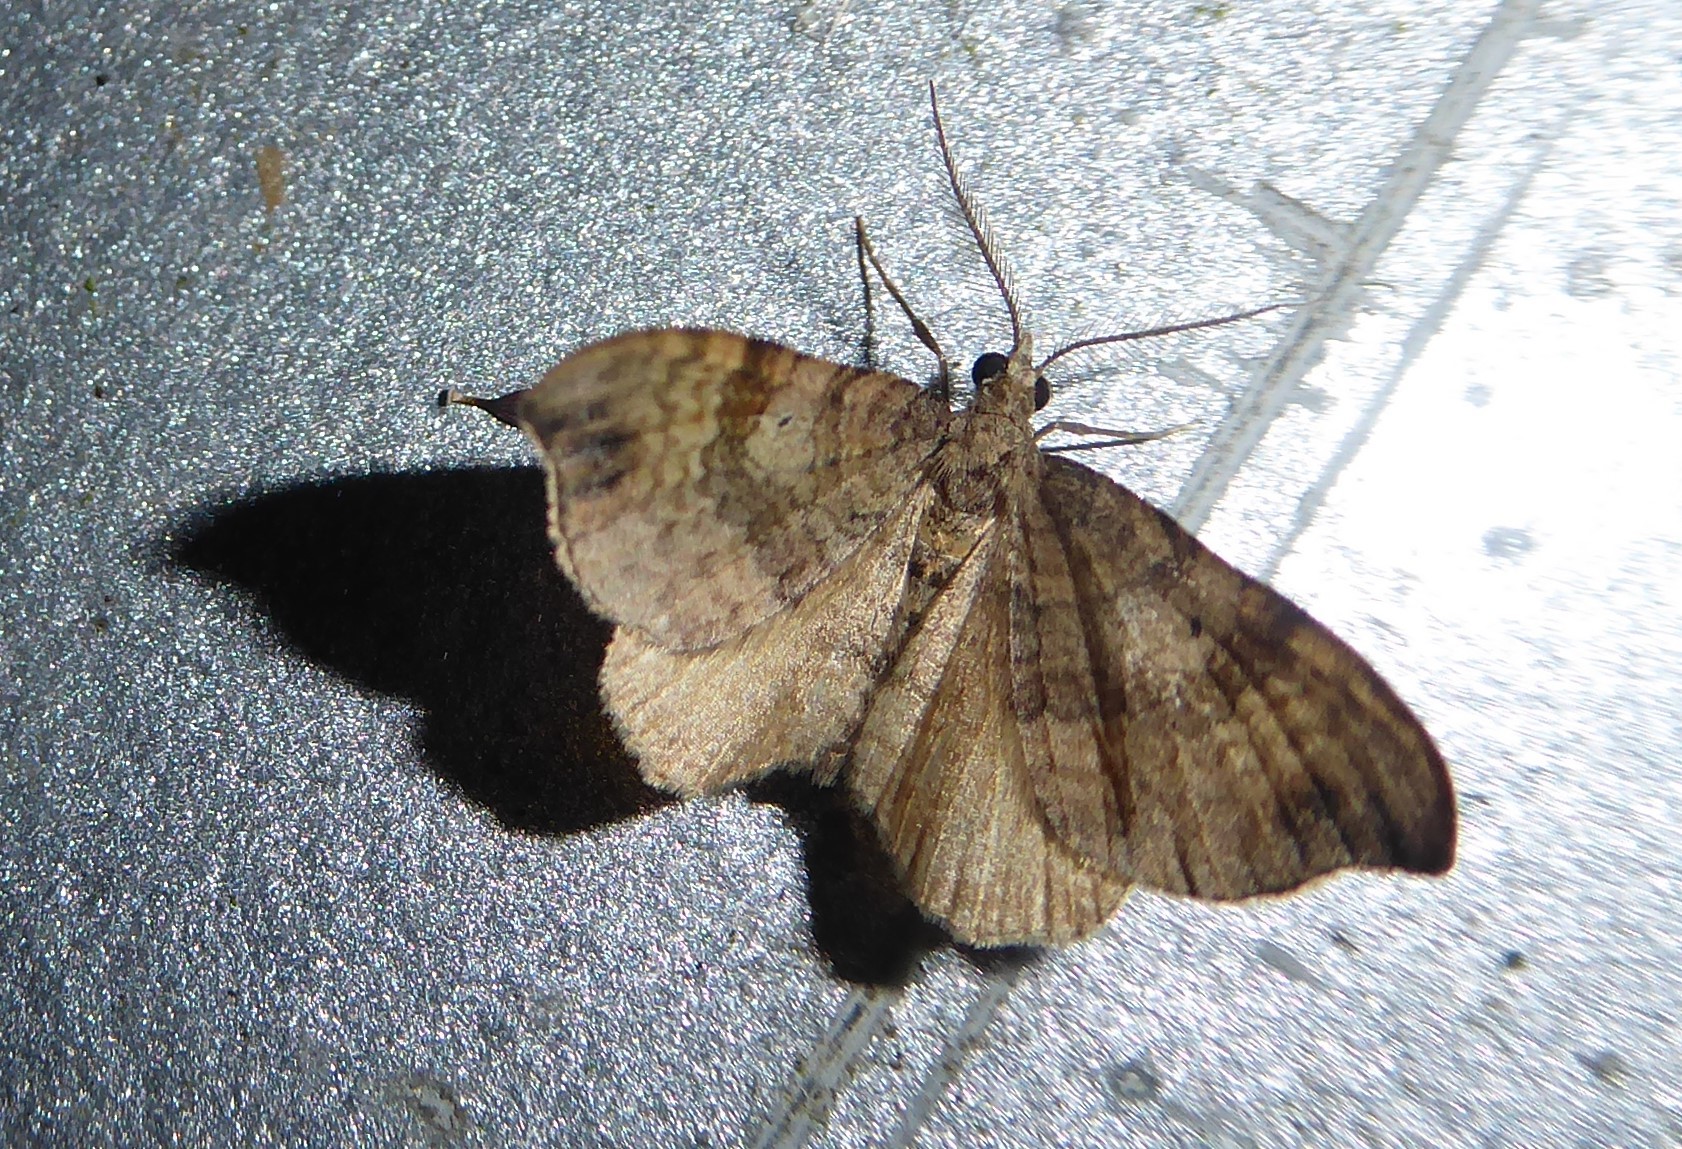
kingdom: Animalia
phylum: Arthropoda
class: Insecta
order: Lepidoptera
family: Geometridae
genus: Homodotis
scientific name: Homodotis megaspilata
